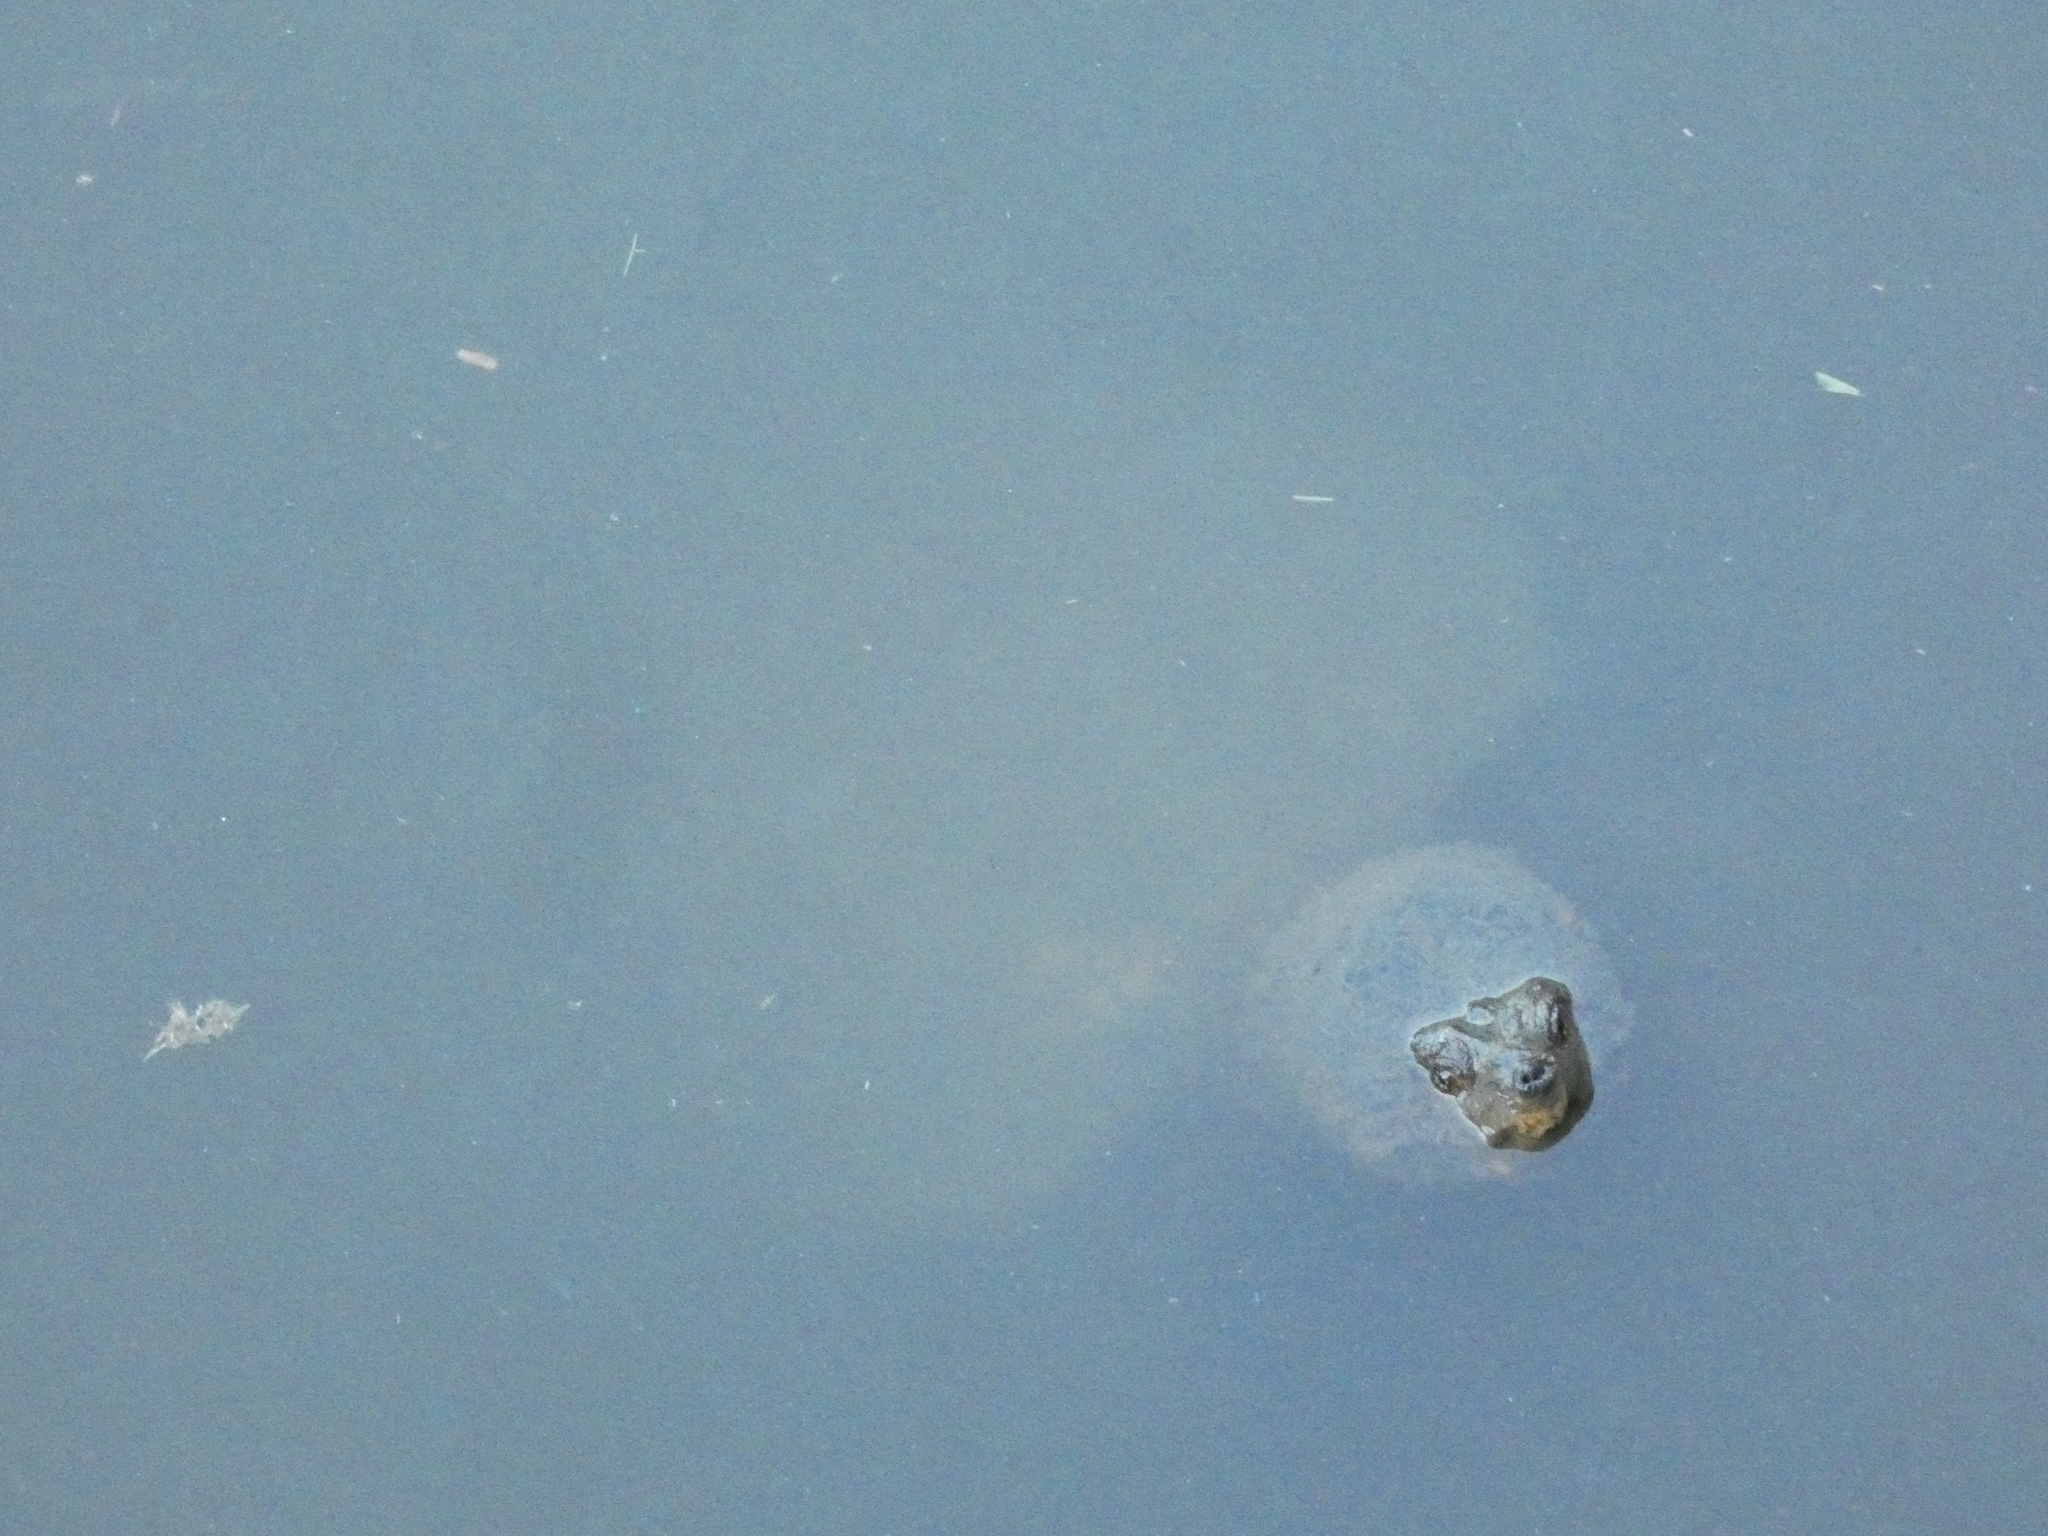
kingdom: Animalia
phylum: Chordata
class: Testudines
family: Chelydridae
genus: Chelydra
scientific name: Chelydra serpentina
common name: Common snapping turtle
